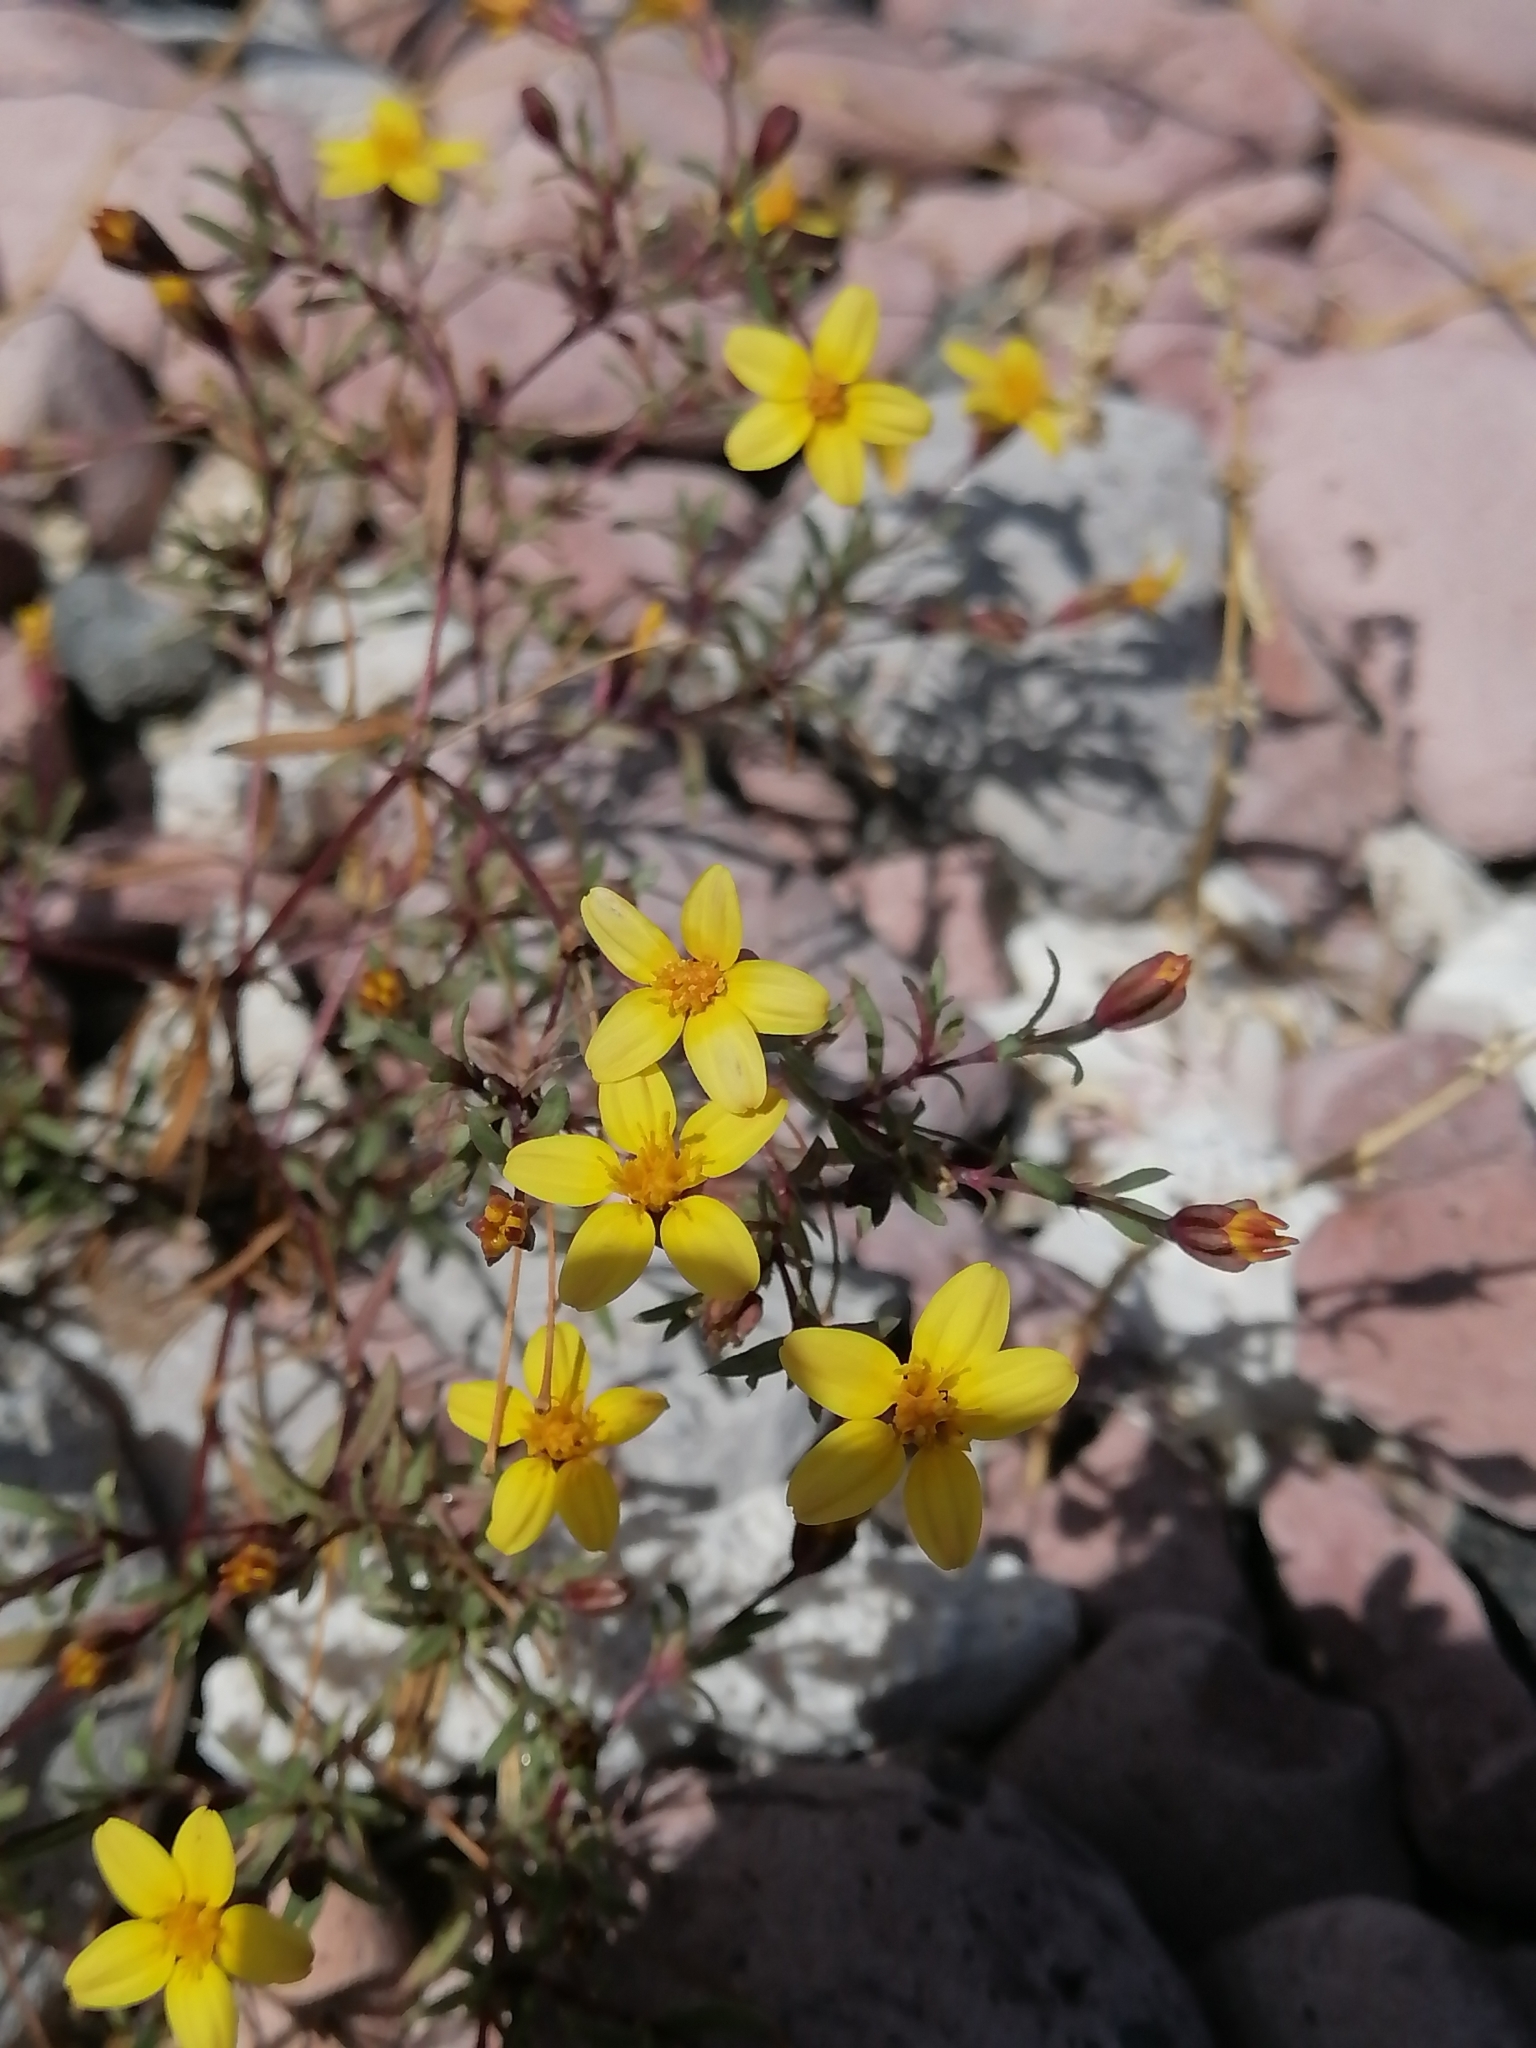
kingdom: Plantae
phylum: Tracheophyta
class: Magnoliopsida
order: Asterales
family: Asteraceae
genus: Pectis
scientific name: Pectis multiseta
